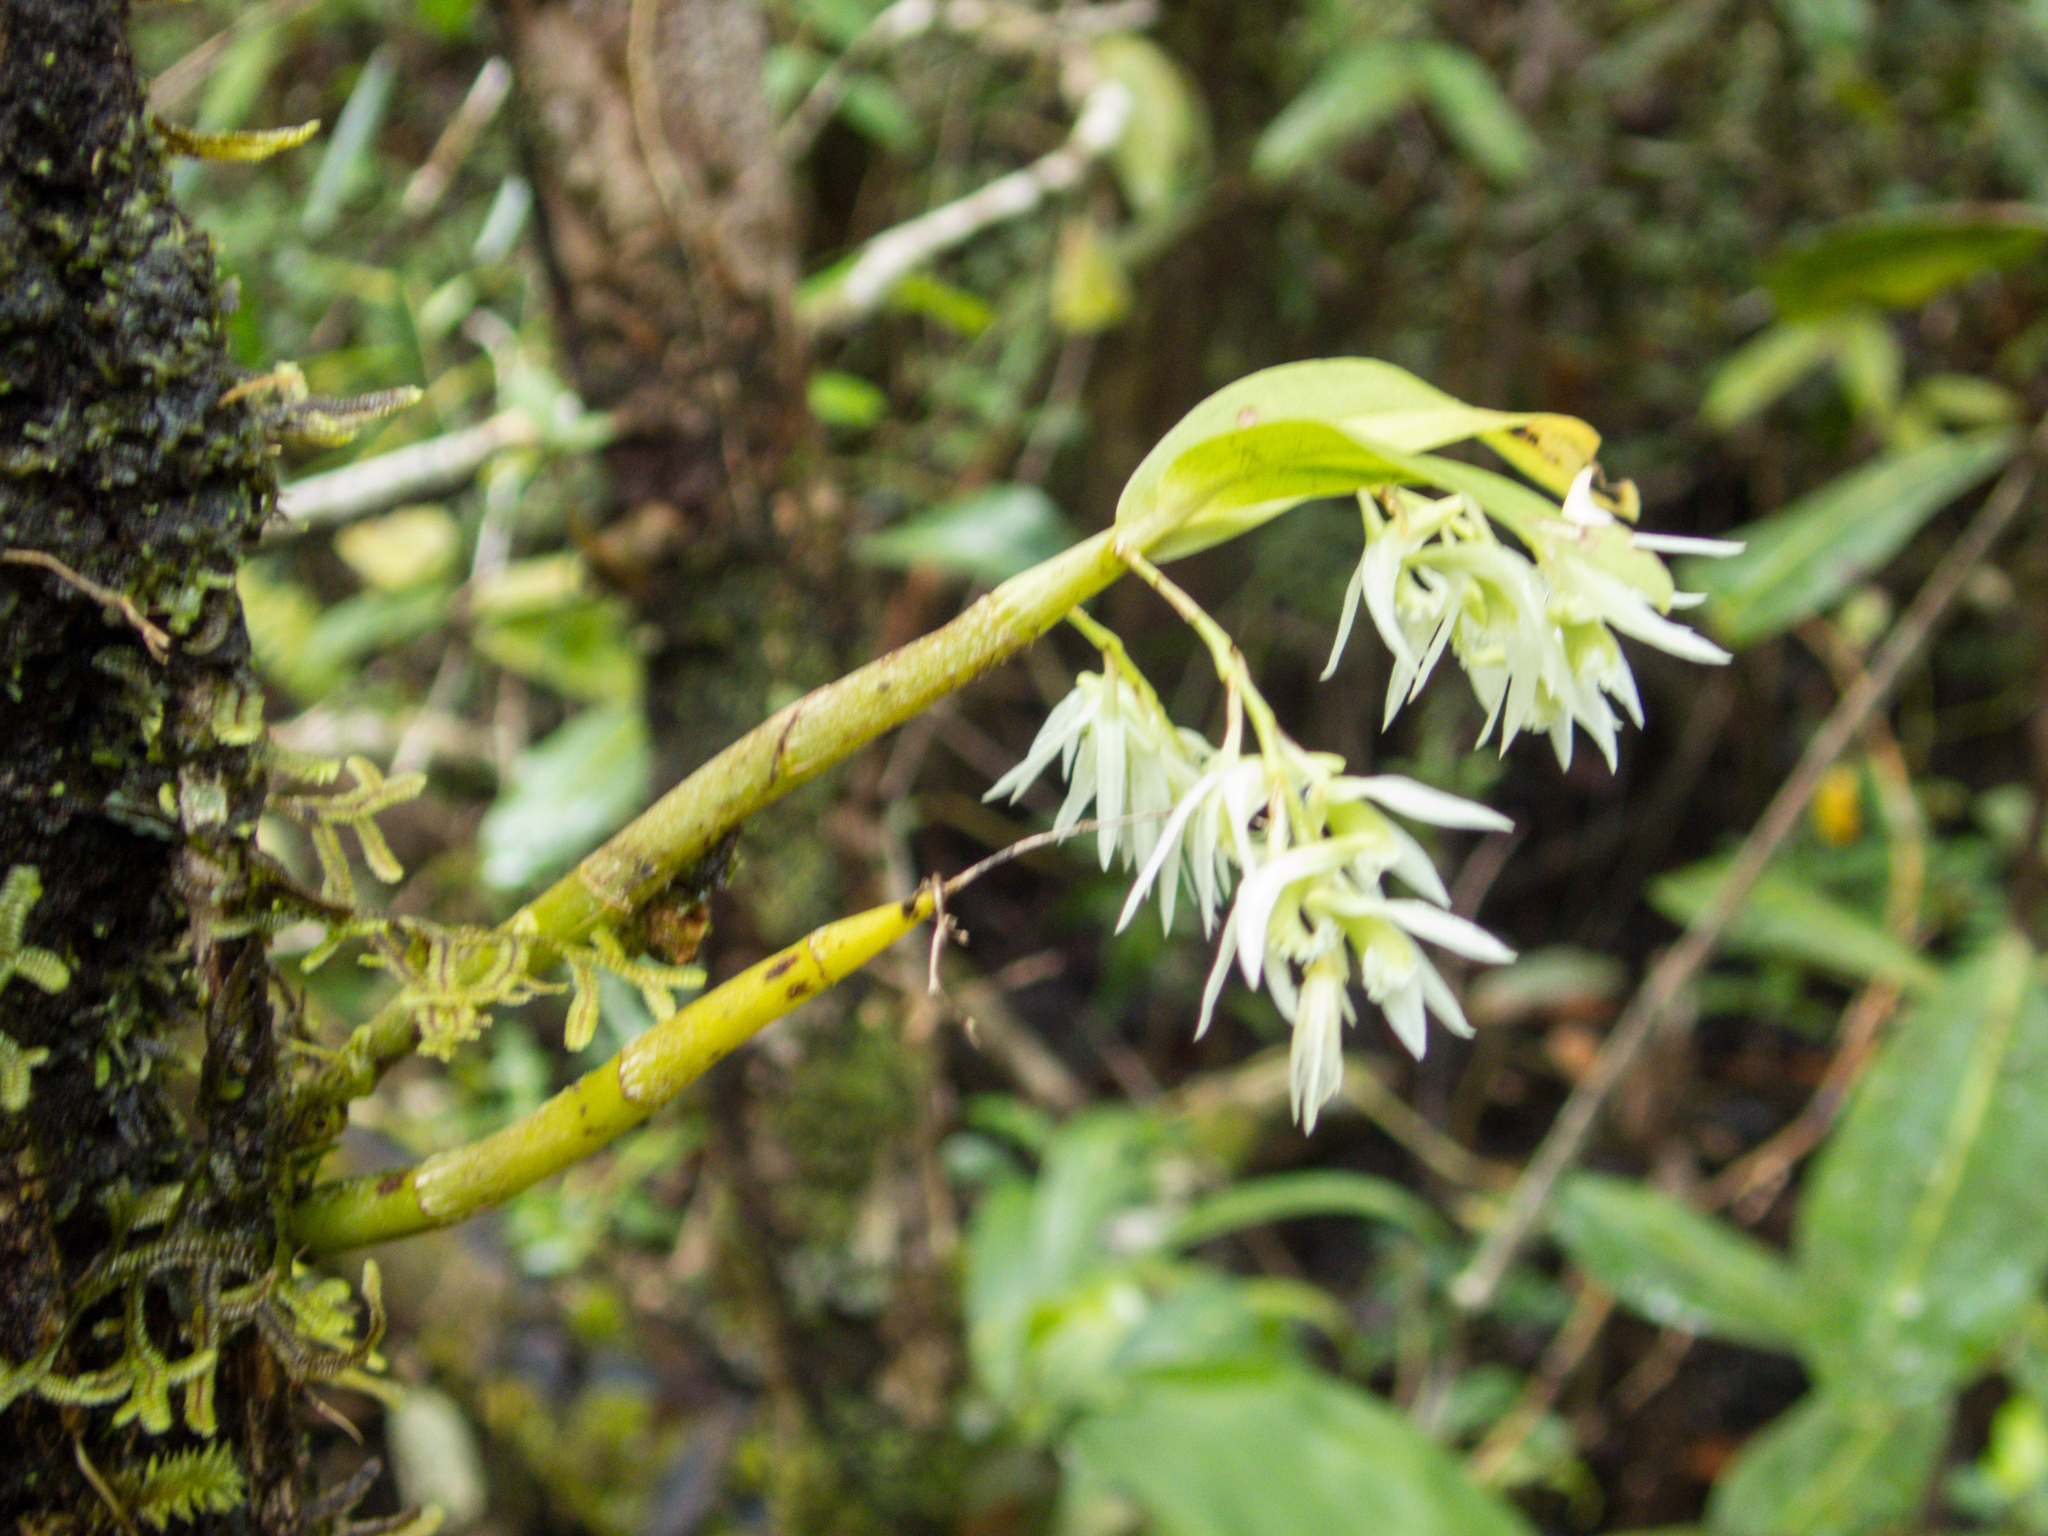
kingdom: Plantae
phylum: Tracheophyta
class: Liliopsida
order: Asparagales
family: Orchidaceae
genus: Dendrobium
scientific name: Dendrobium kratense
